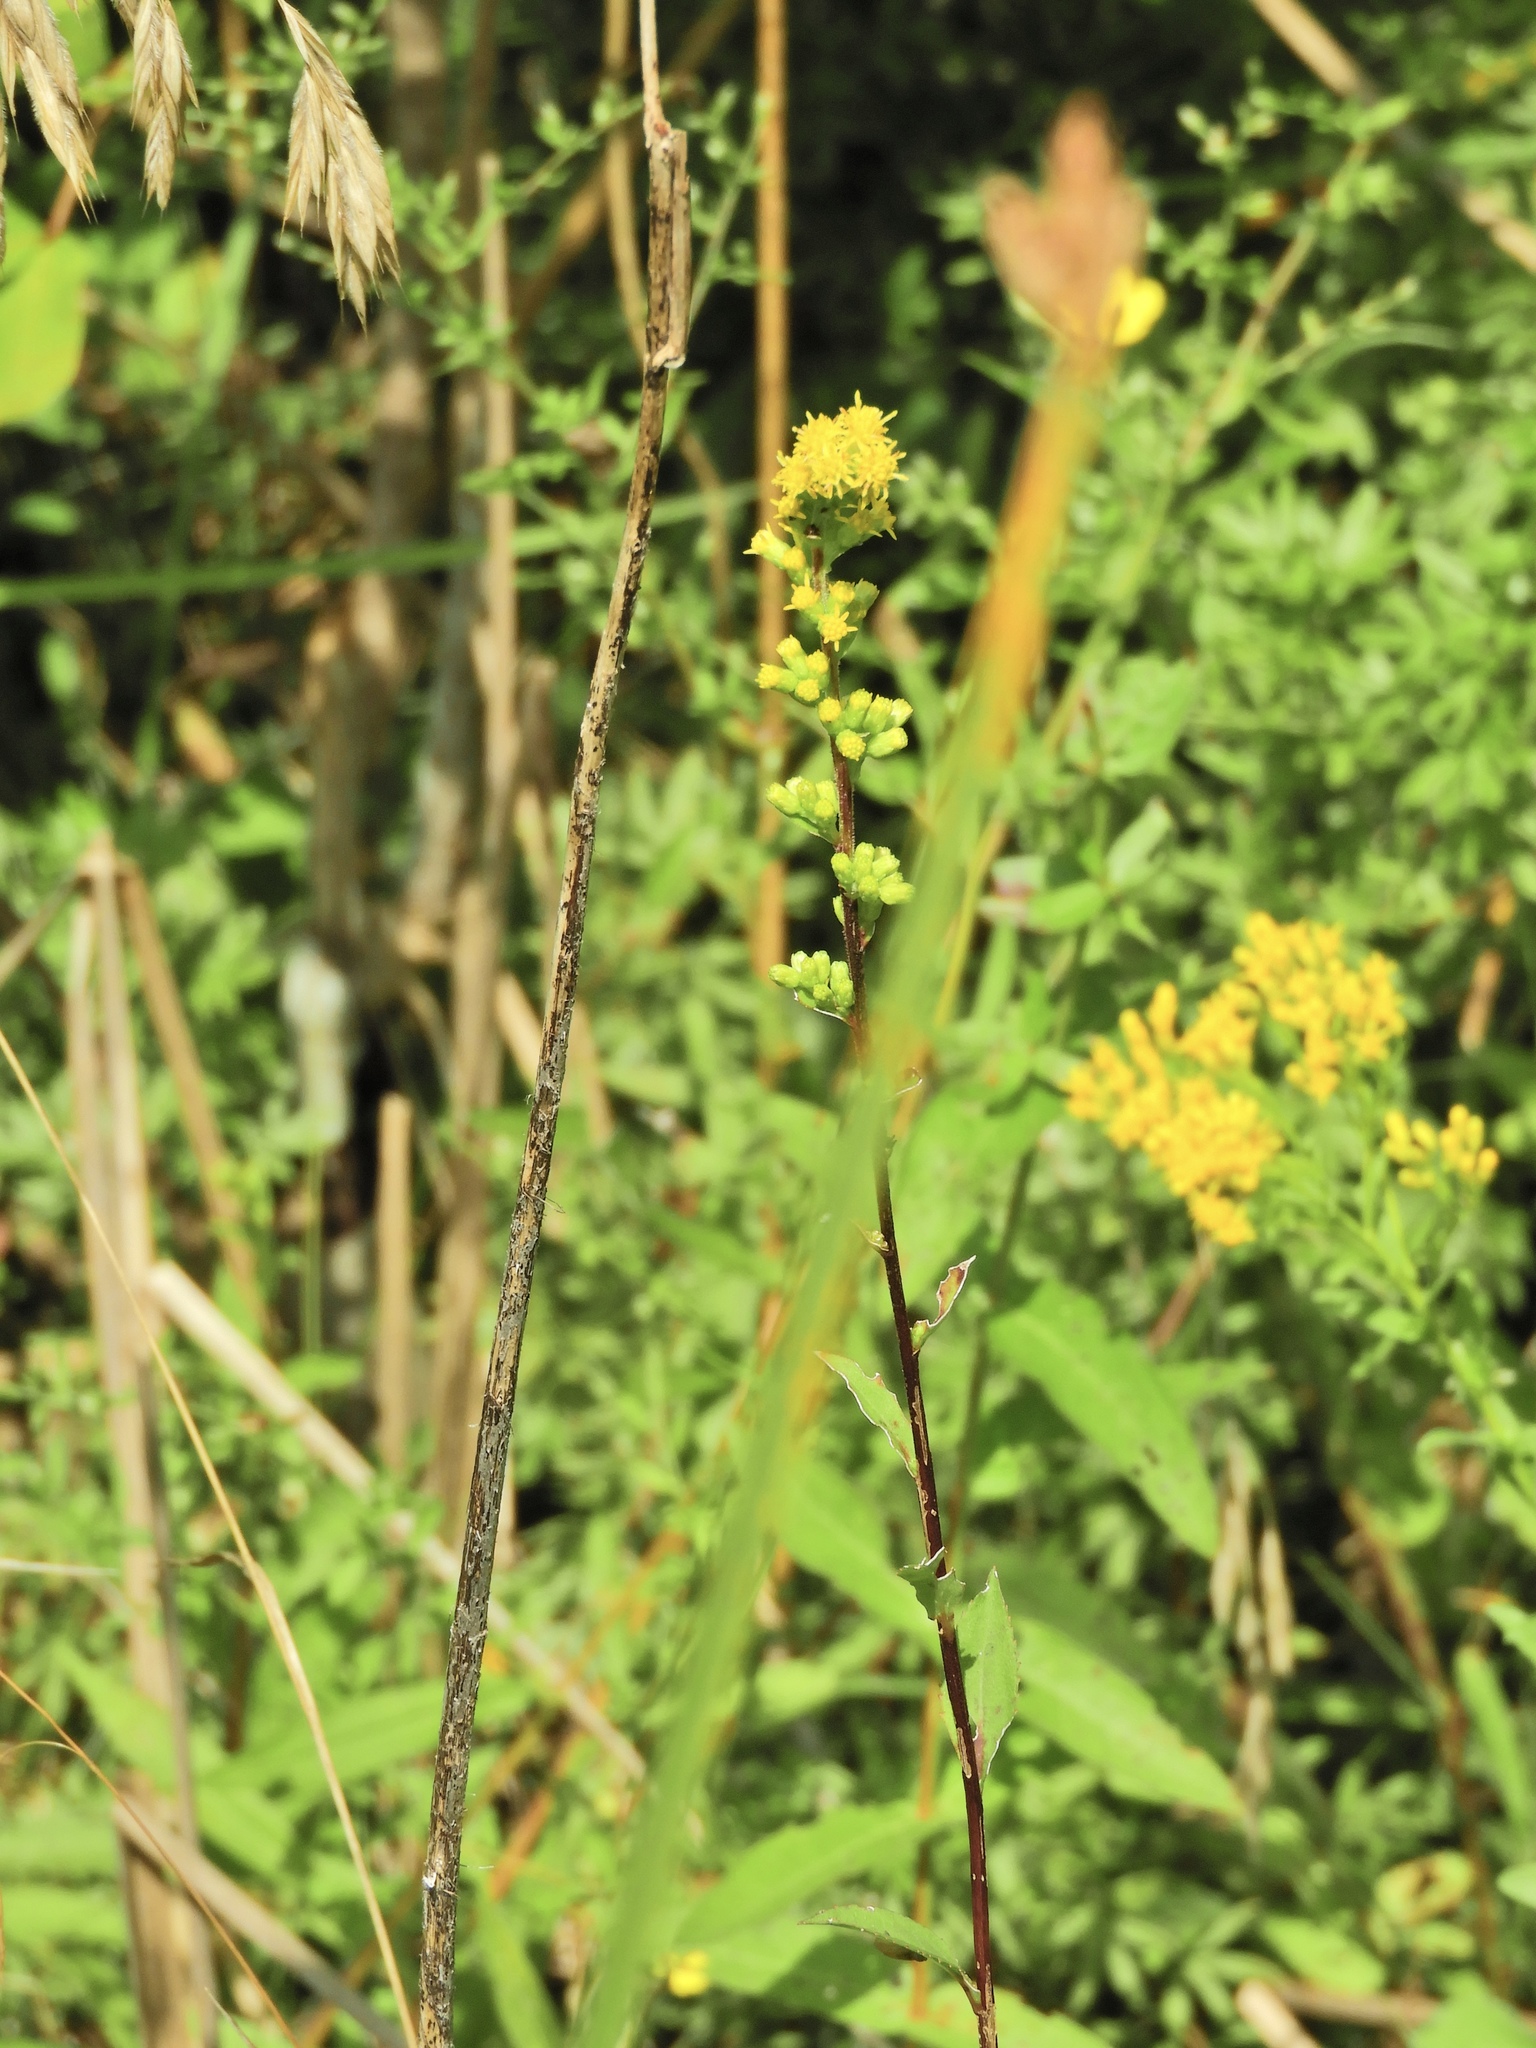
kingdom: Plantae
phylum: Tracheophyta
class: Magnoliopsida
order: Asterales
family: Asteraceae
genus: Solidago
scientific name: Solidago uliginosa
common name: Bog goldenrod
